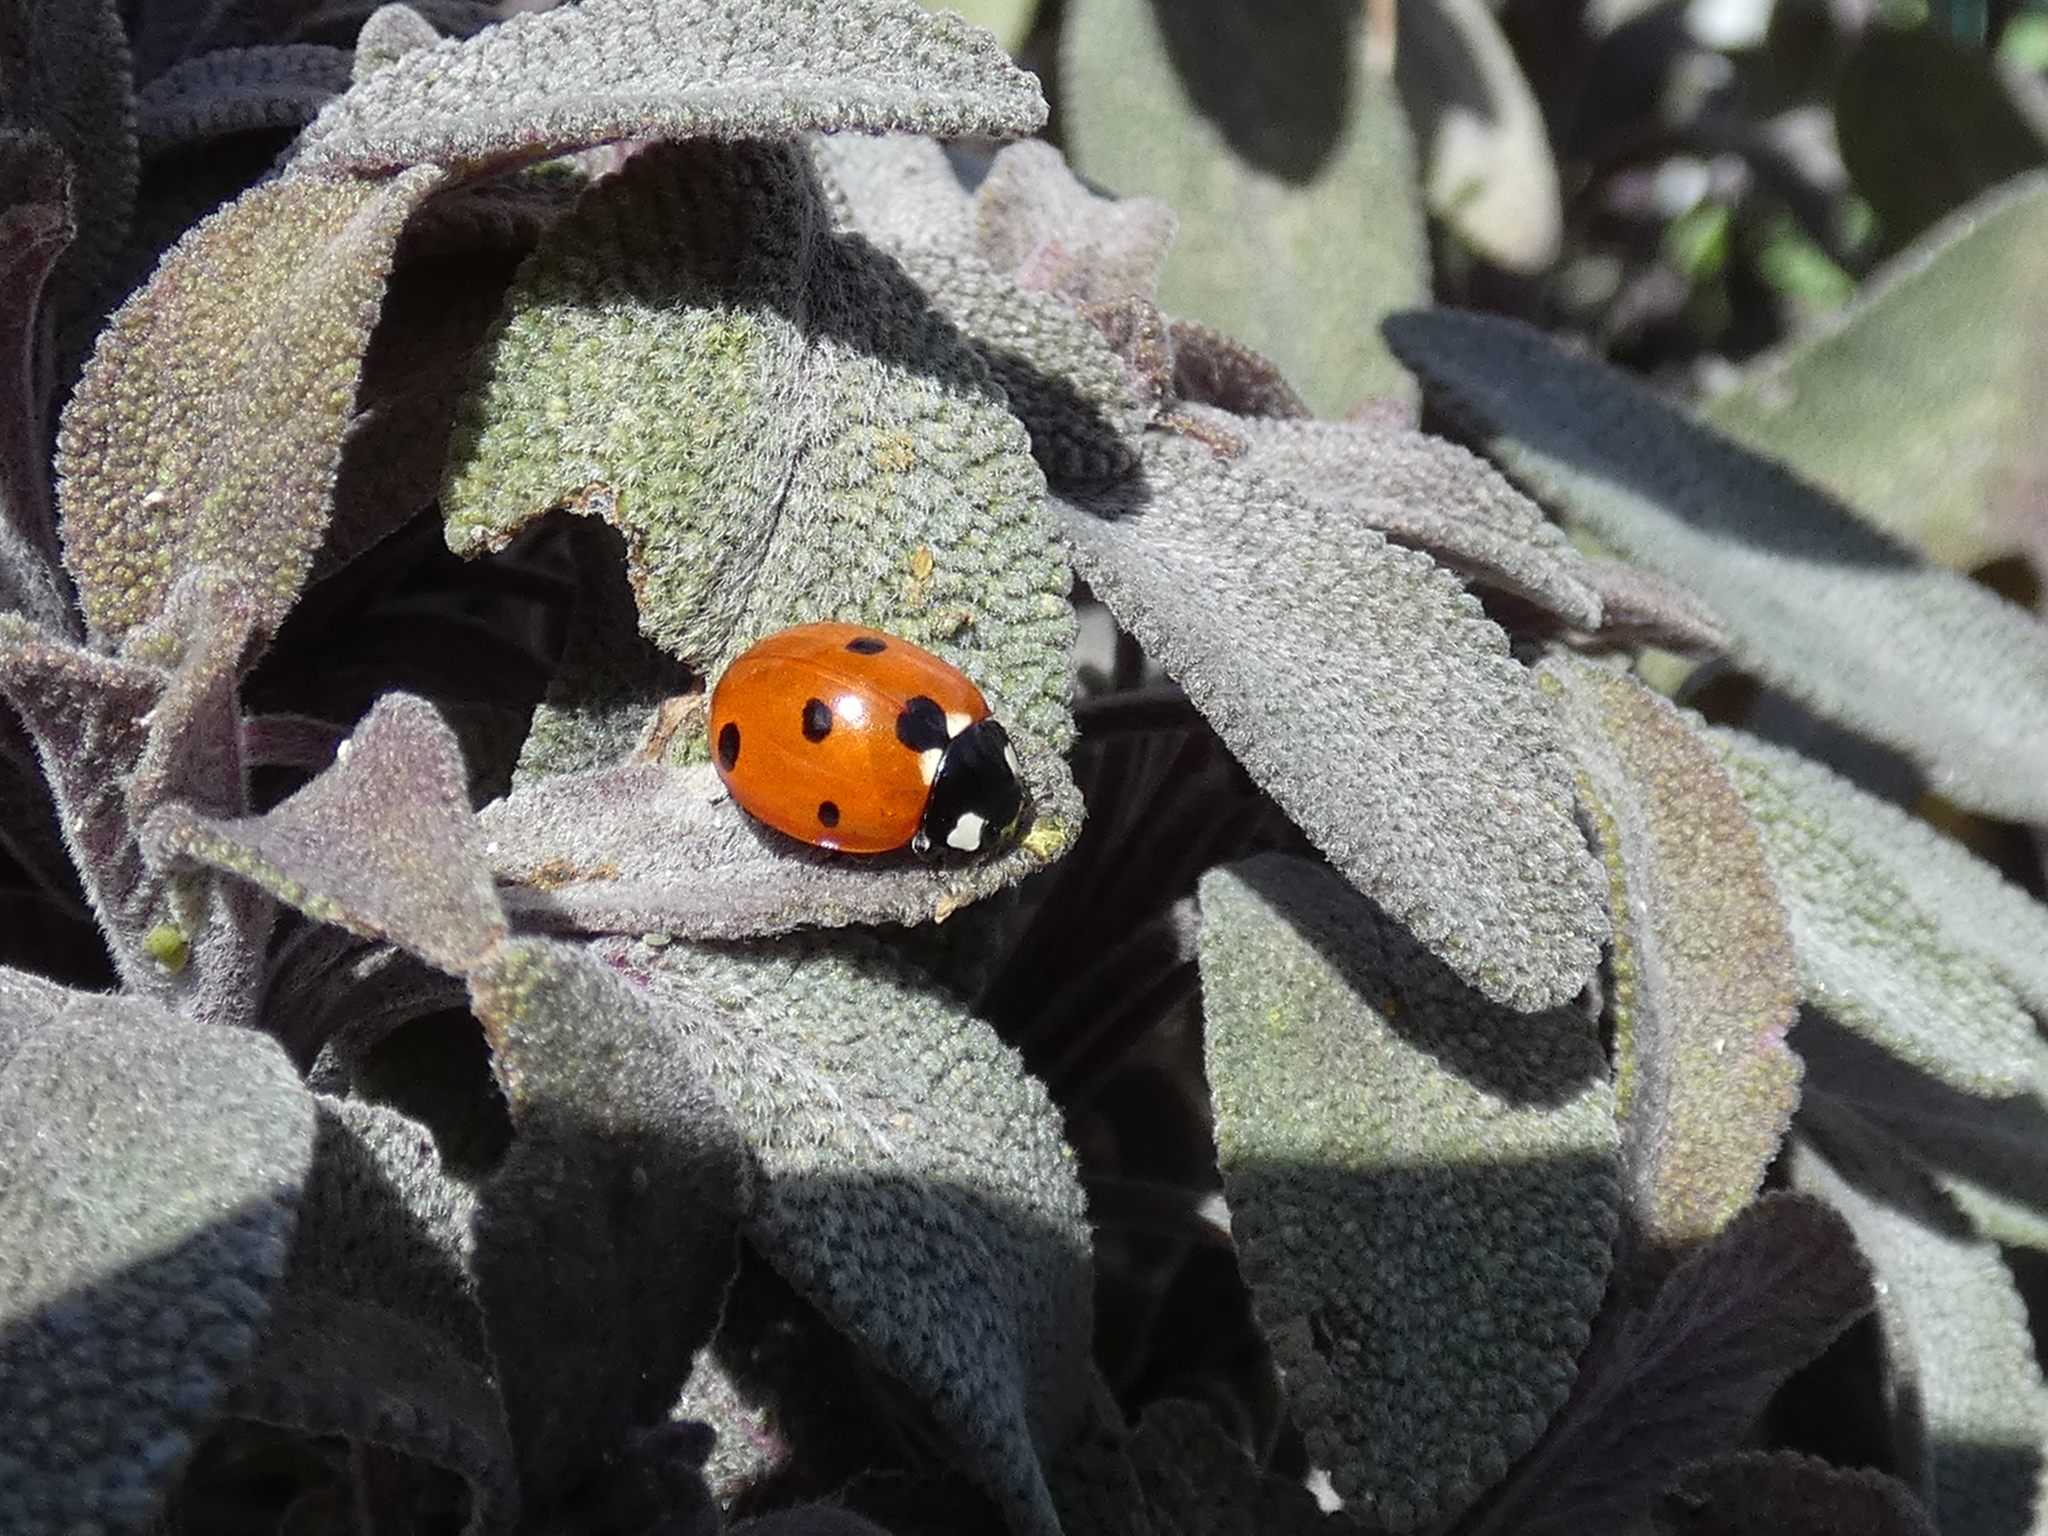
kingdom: Animalia
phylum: Arthropoda
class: Insecta
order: Coleoptera
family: Coccinellidae
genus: Coccinella
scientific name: Coccinella septempunctata
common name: Sevenspotted lady beetle
